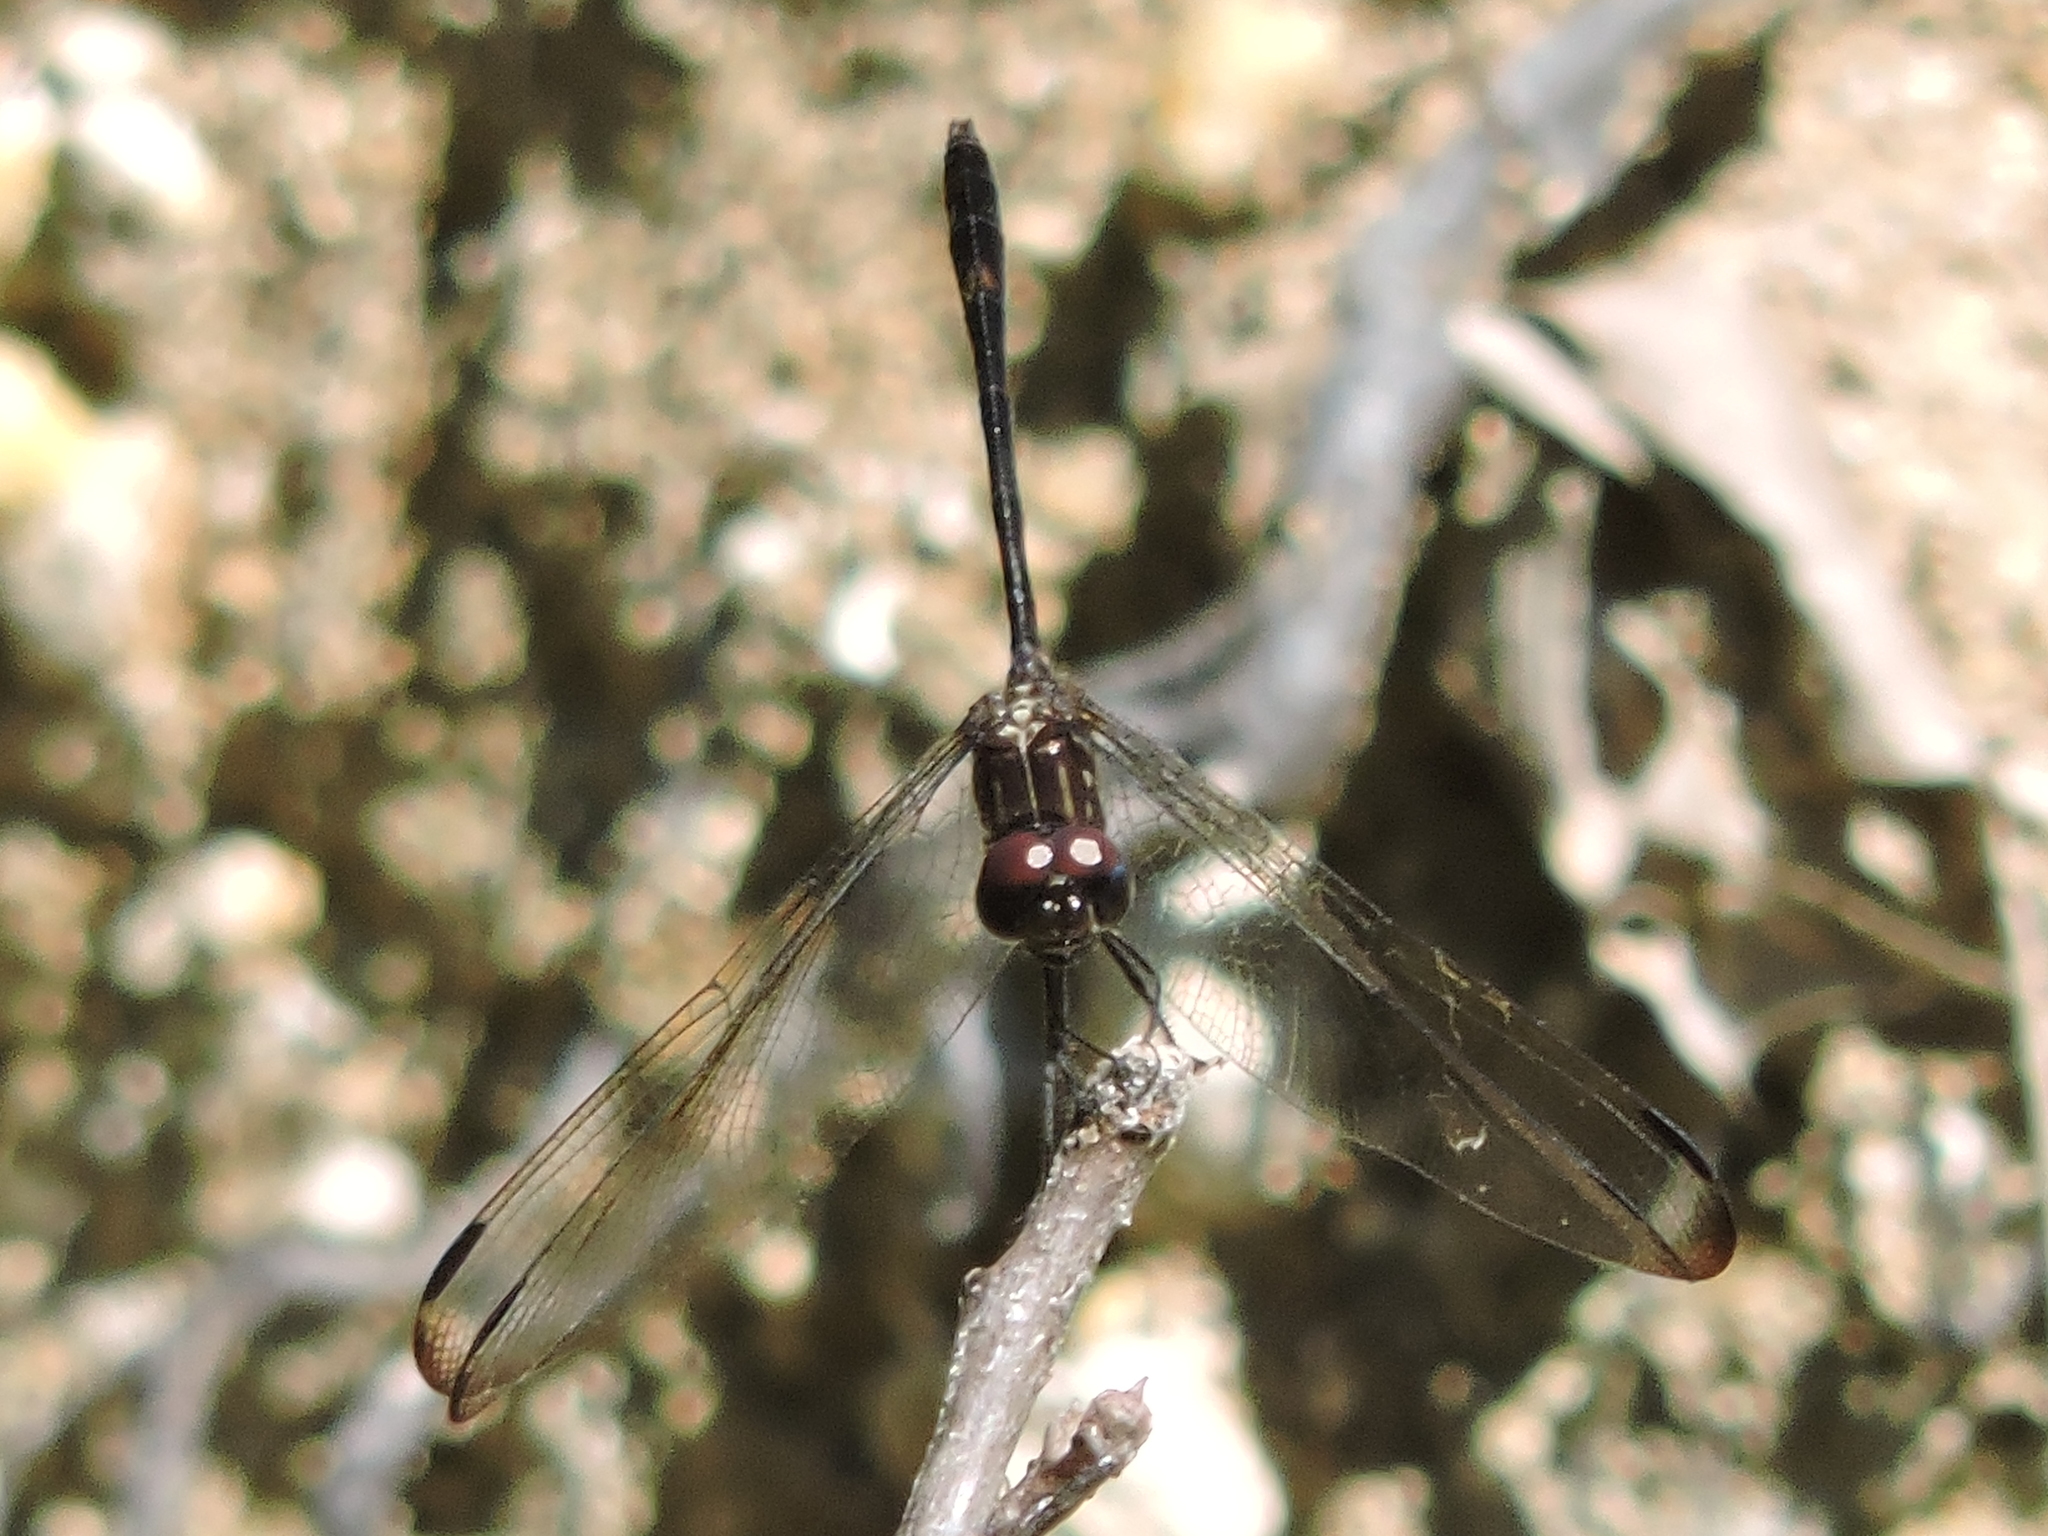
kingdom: Animalia
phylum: Arthropoda
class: Insecta
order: Odonata
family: Libellulidae
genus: Dythemis
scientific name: Dythemis velox
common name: Swift setwing
